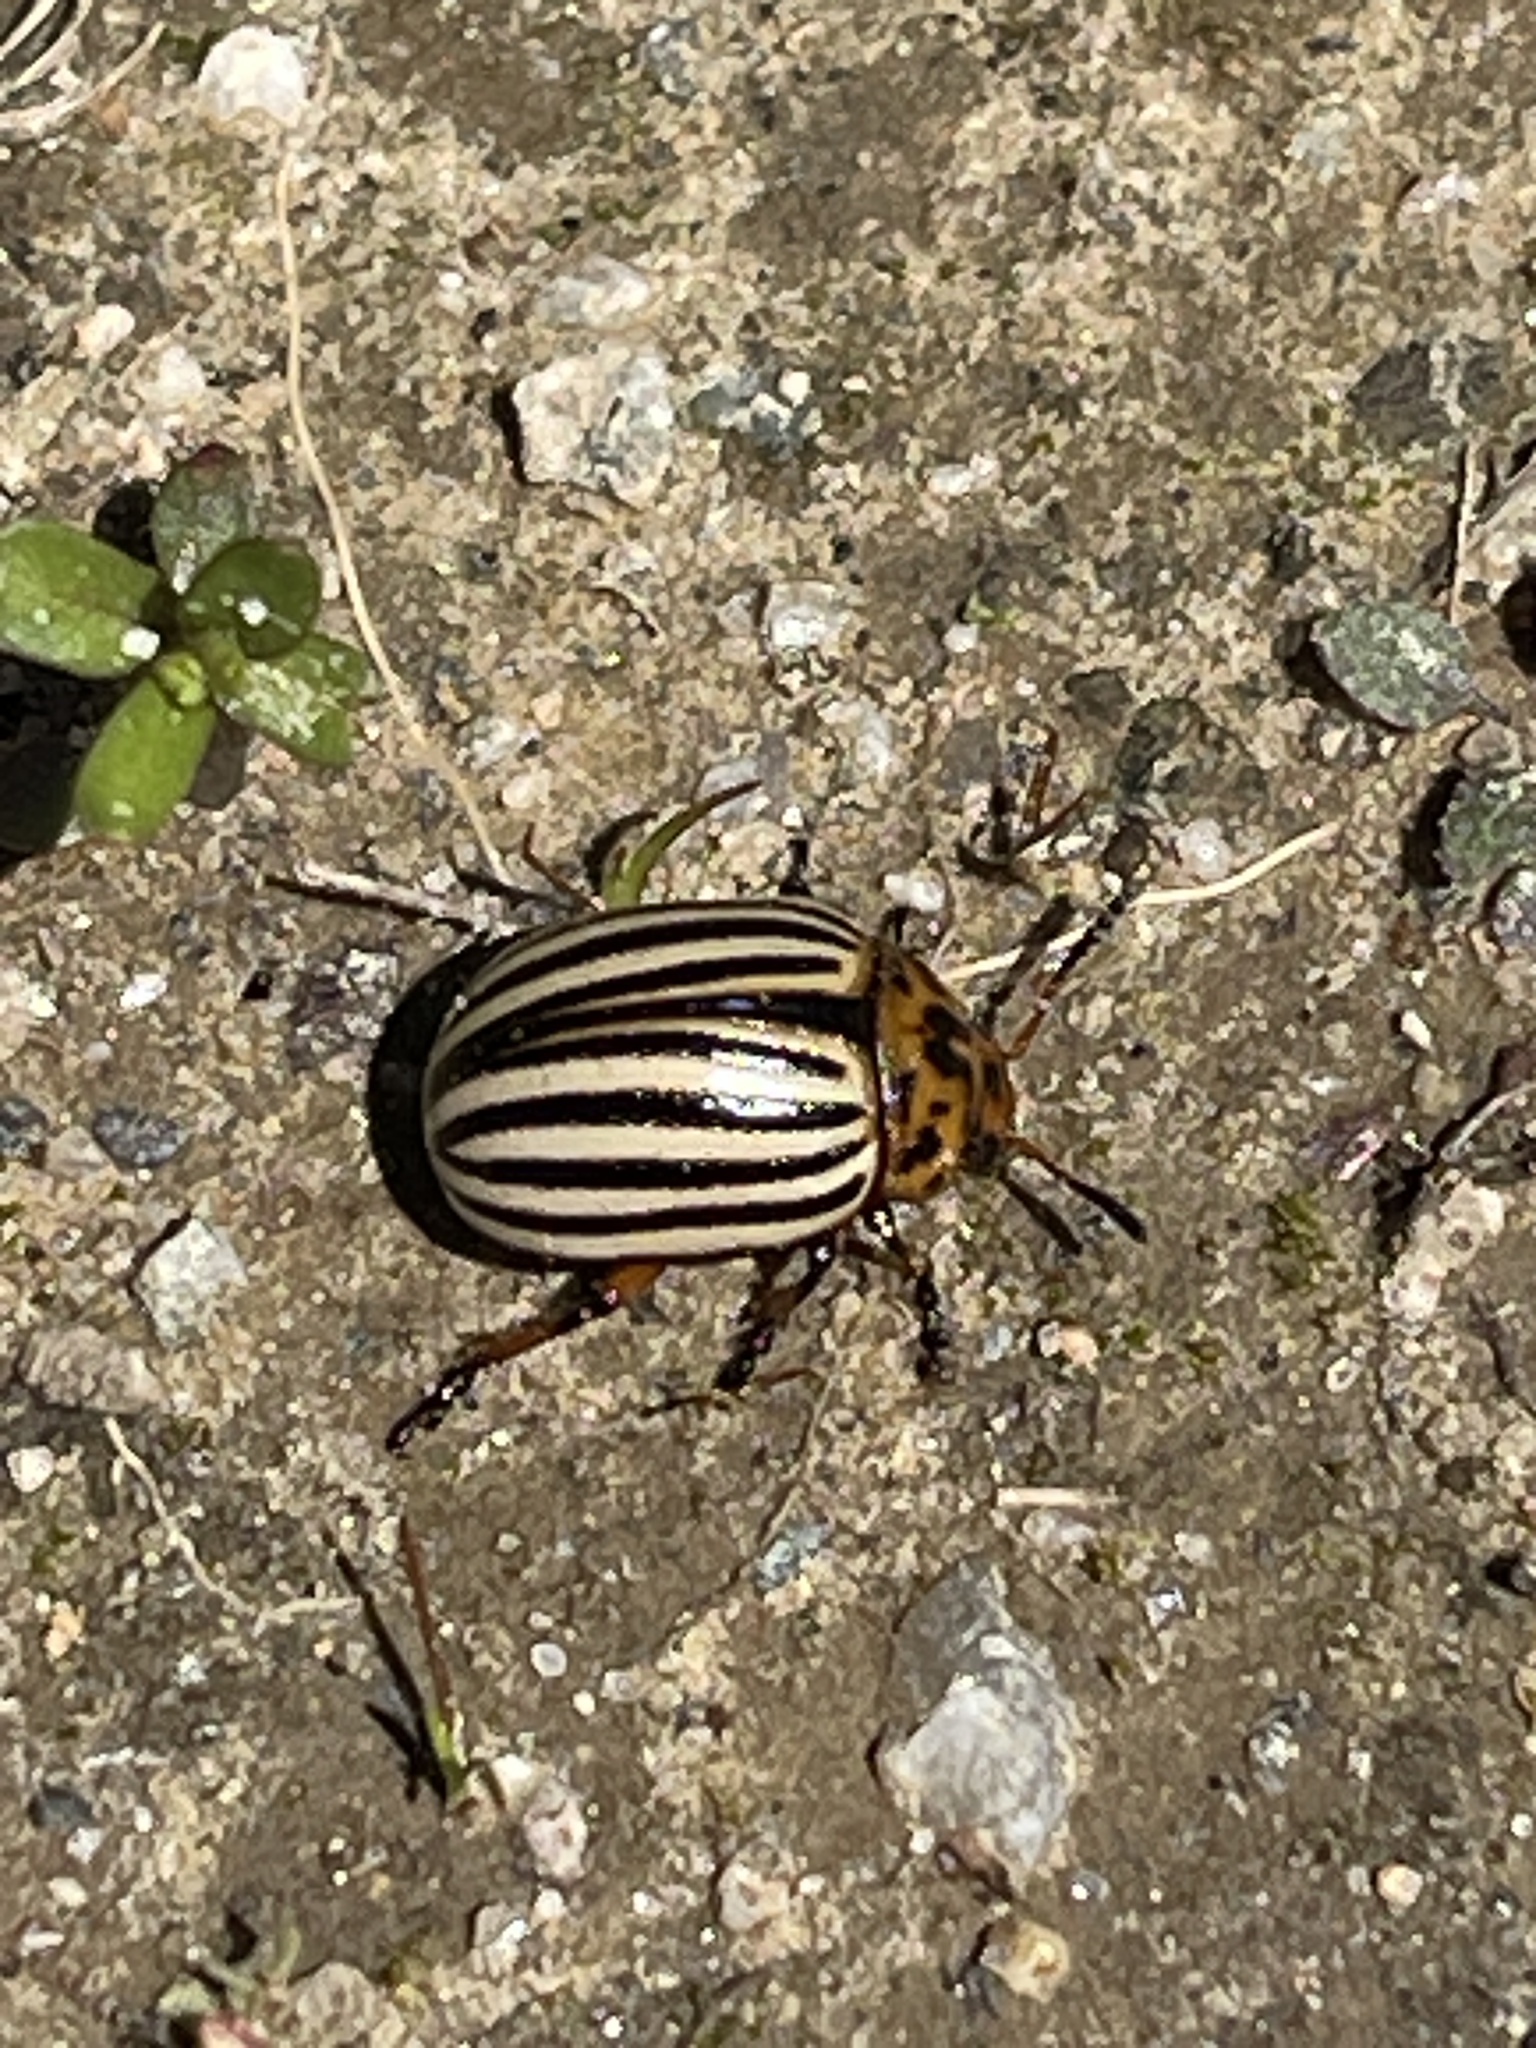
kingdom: Animalia
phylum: Arthropoda
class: Insecta
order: Coleoptera
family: Chrysomelidae
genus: Leptinotarsa
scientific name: Leptinotarsa decemlineata
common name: Colorado potato beetle
